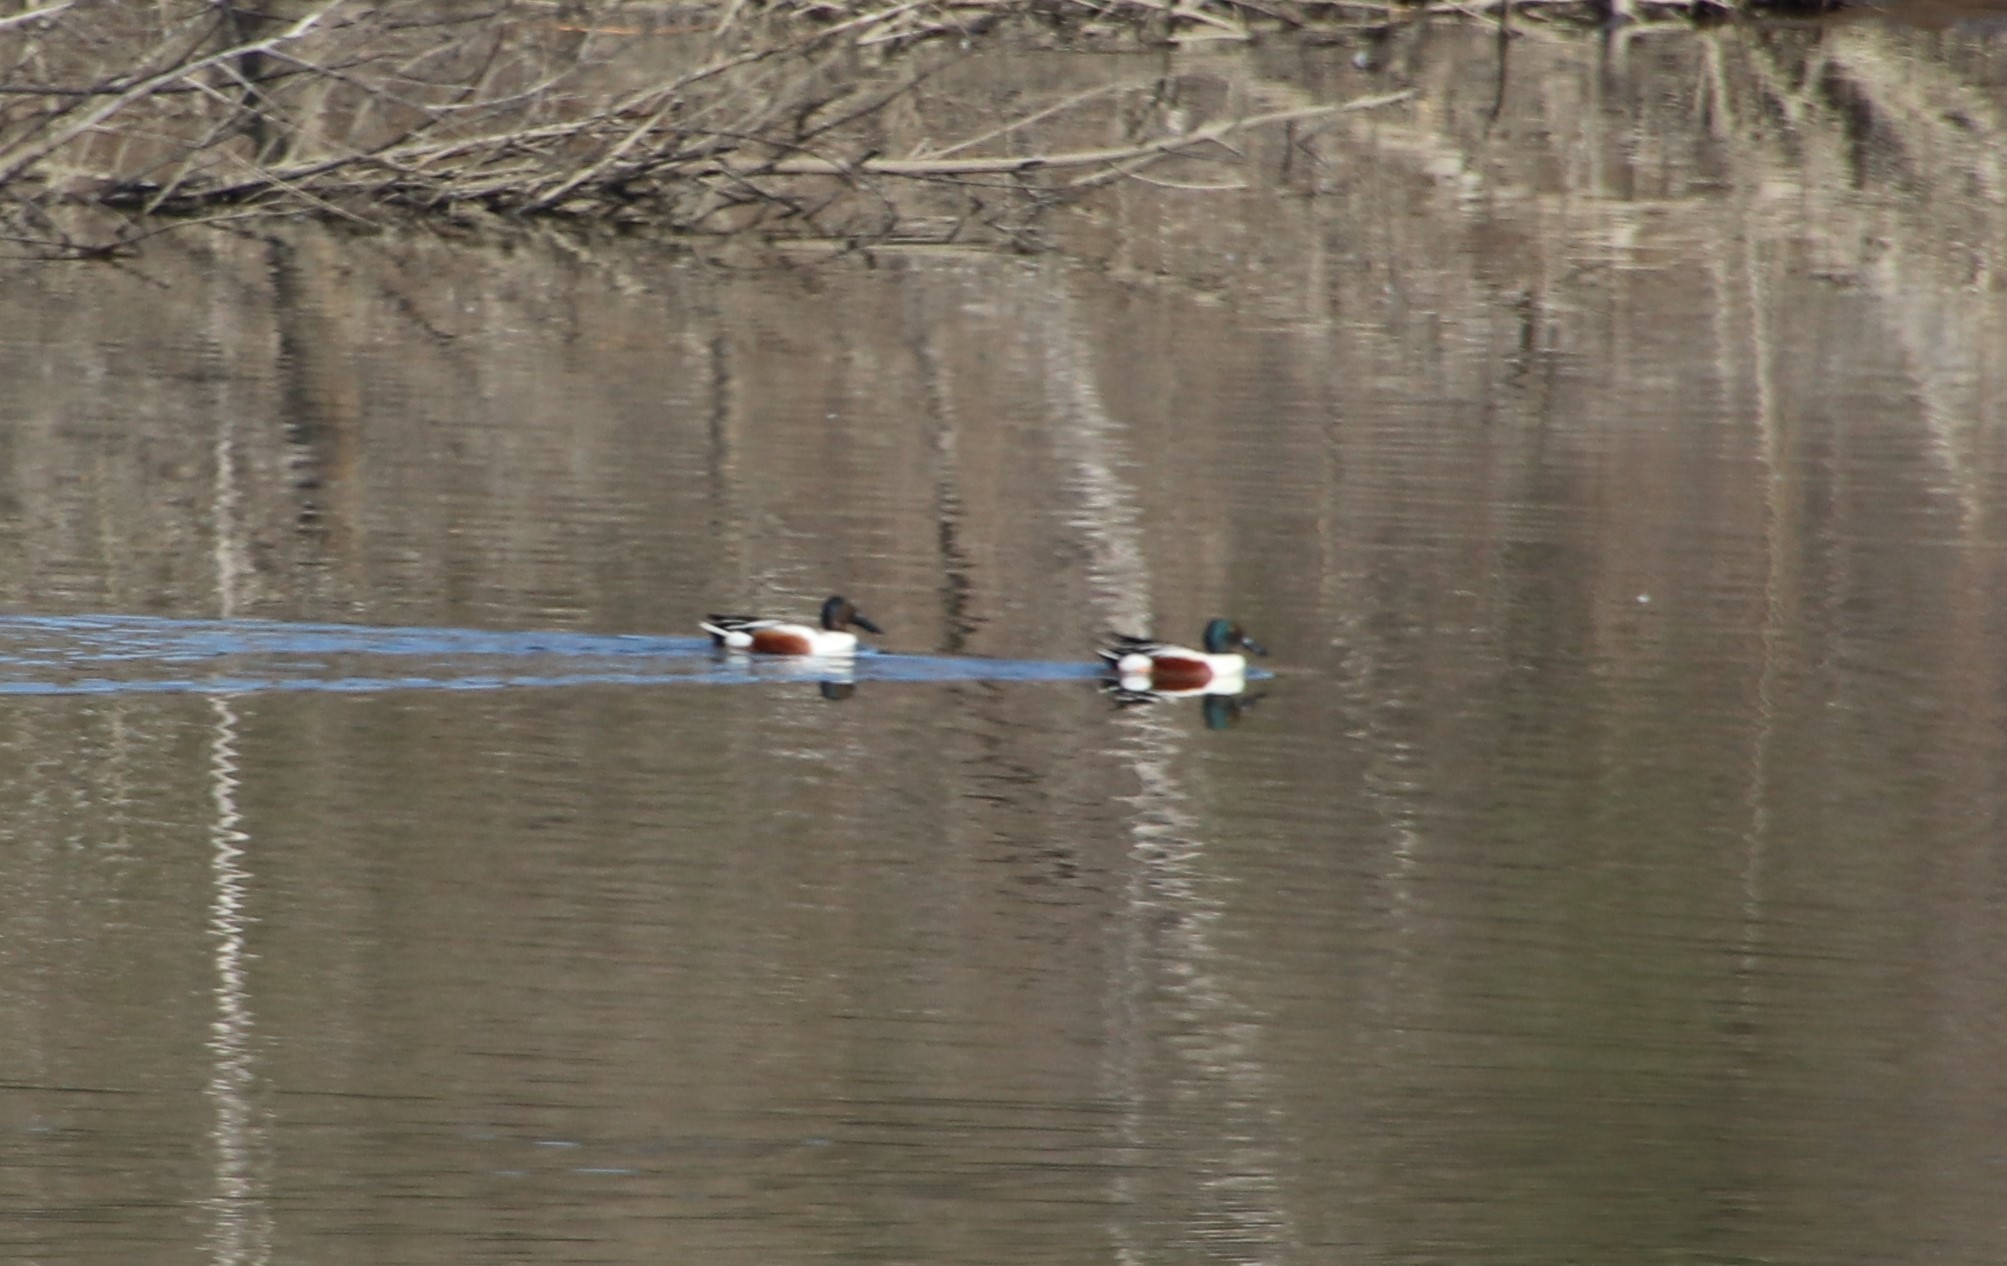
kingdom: Animalia
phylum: Chordata
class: Aves
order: Anseriformes
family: Anatidae
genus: Spatula
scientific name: Spatula clypeata
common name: Northern shoveler
